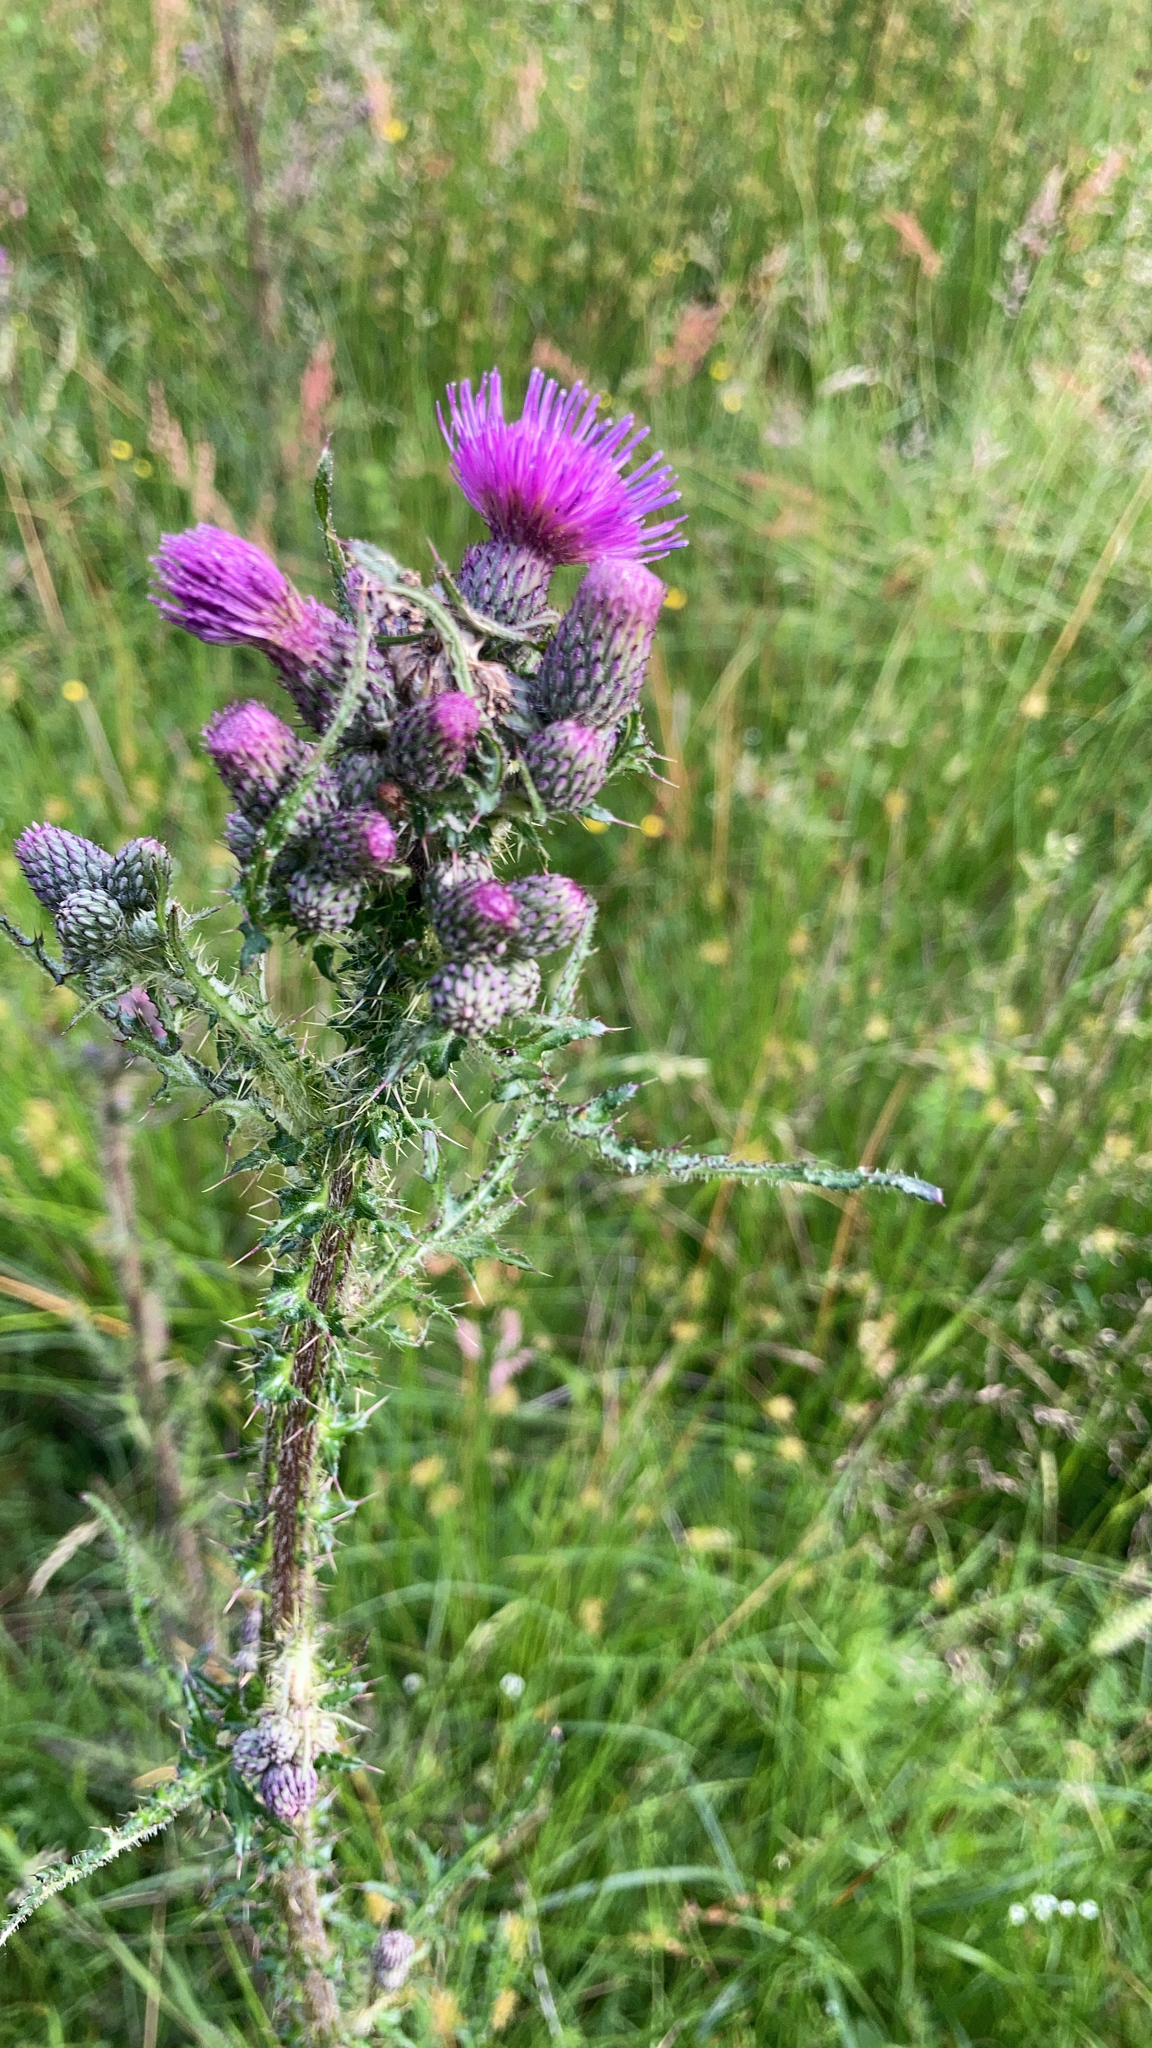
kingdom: Plantae
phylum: Tracheophyta
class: Magnoliopsida
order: Asterales
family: Asteraceae
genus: Cirsium
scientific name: Cirsium palustre
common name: Marsh thistle
